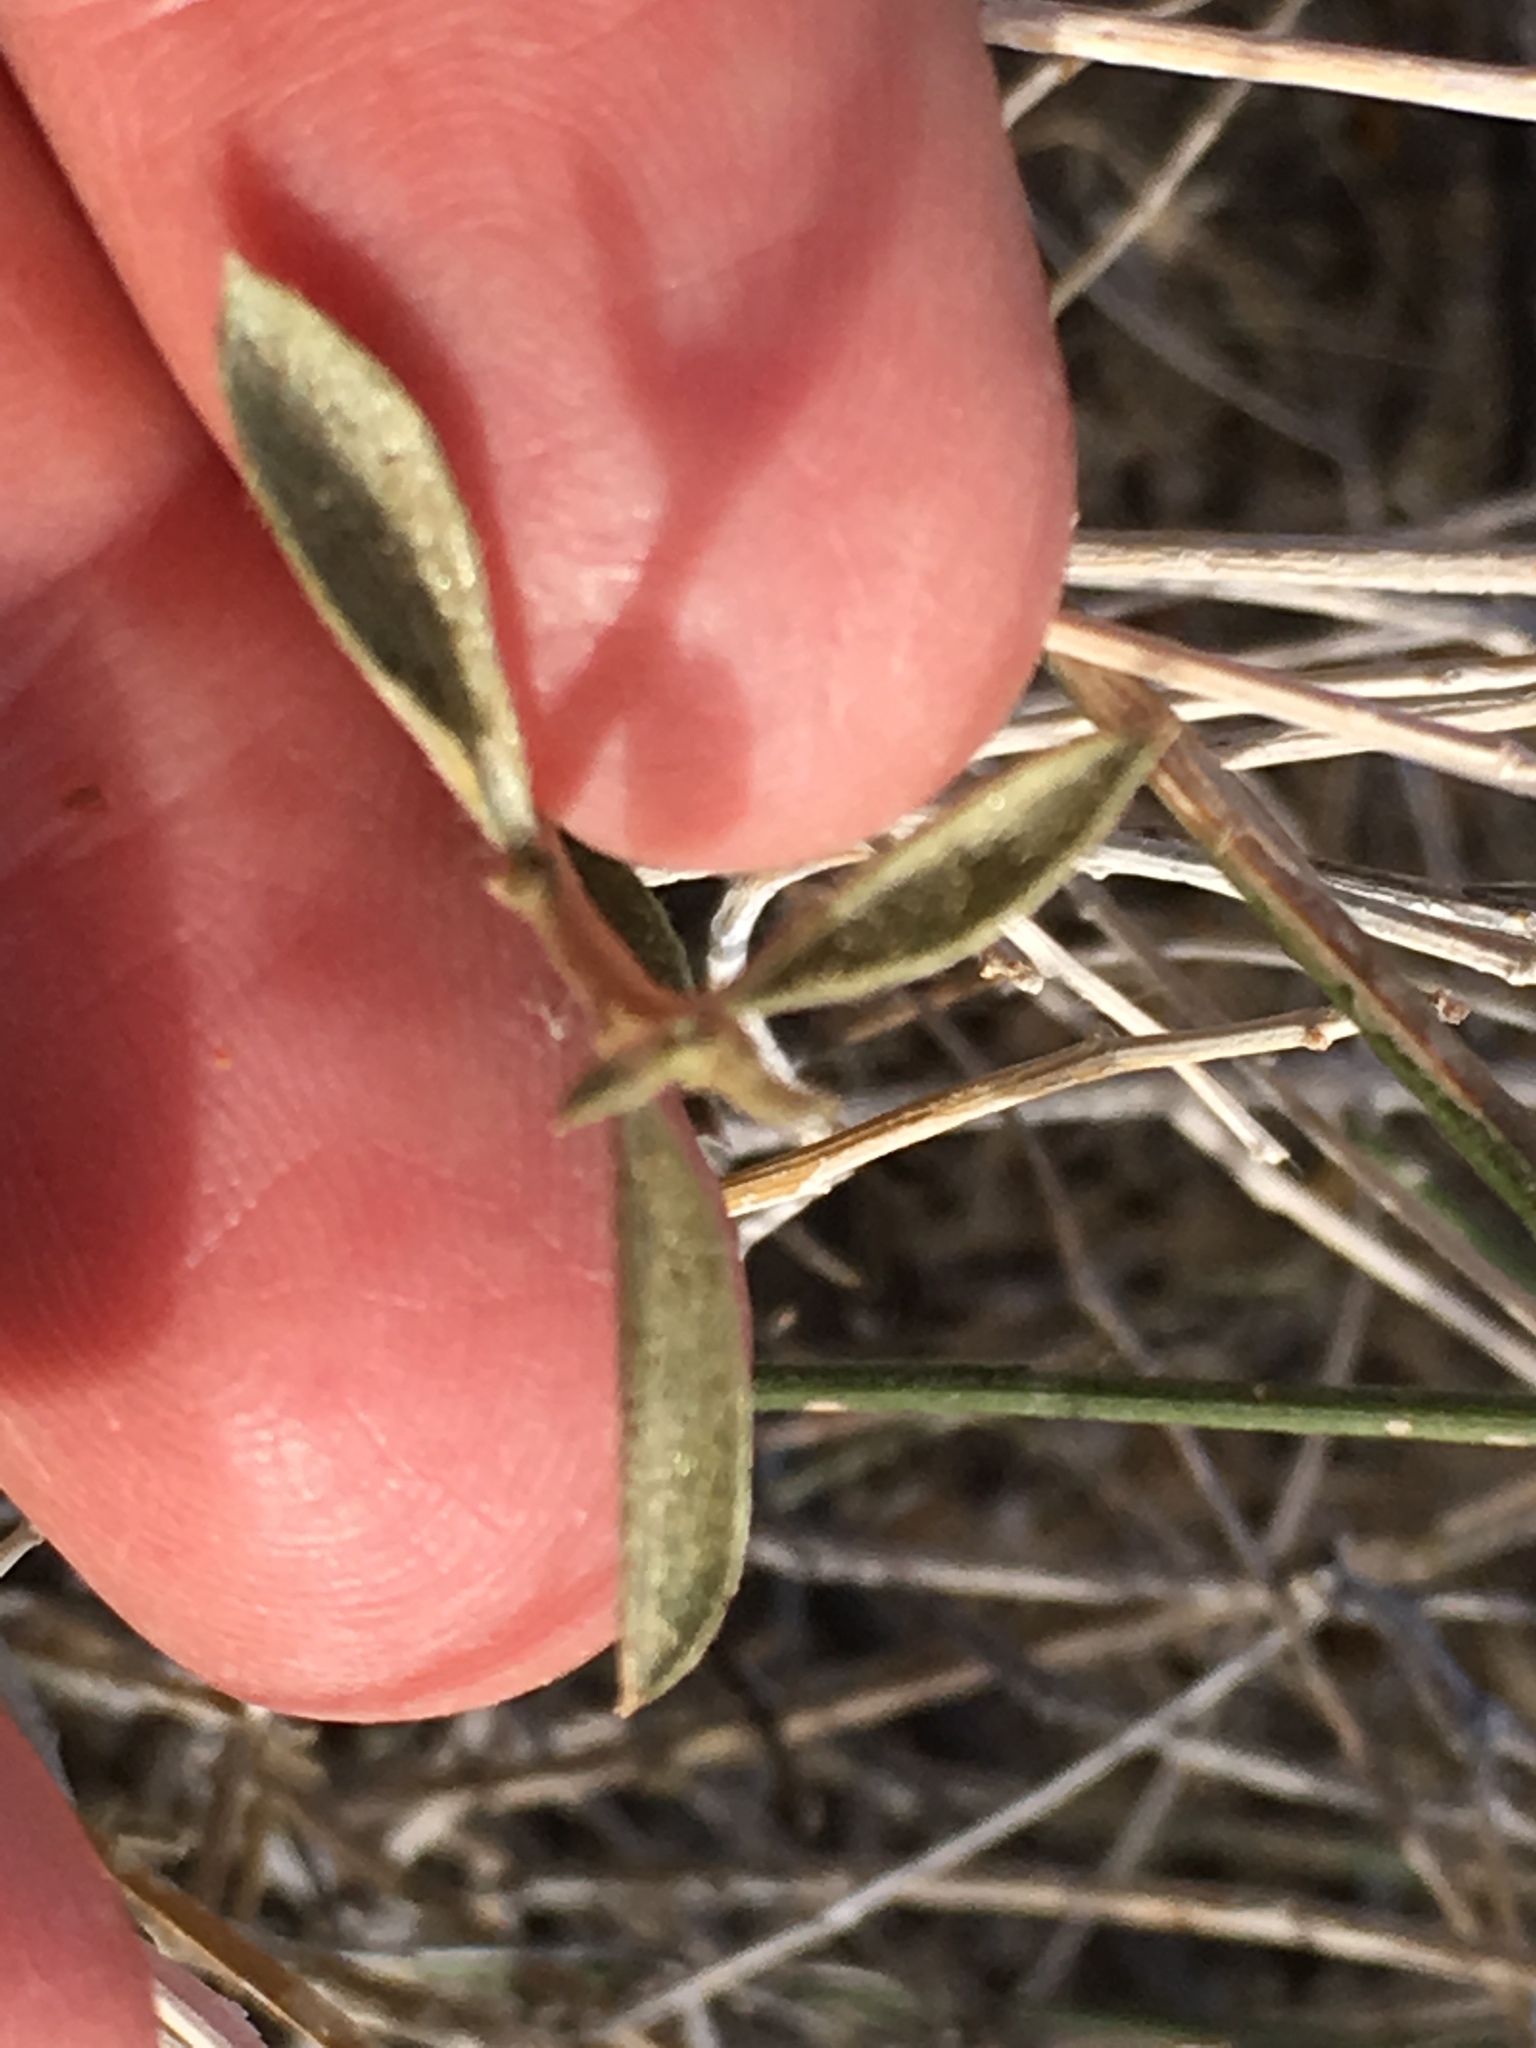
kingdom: Plantae
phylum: Tracheophyta
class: Magnoliopsida
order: Malpighiales
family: Euphorbiaceae
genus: Ditaxis
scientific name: Ditaxis lanceolata
